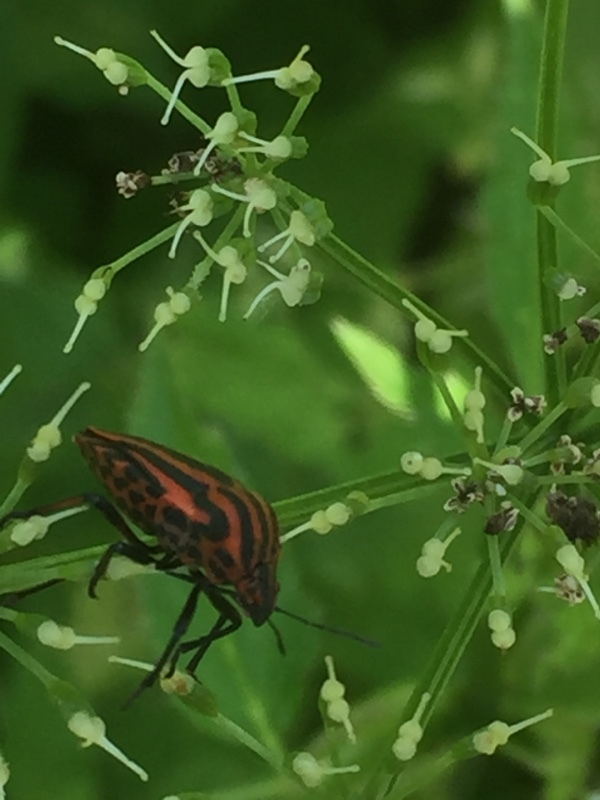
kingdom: Animalia
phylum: Arthropoda
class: Insecta
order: Hemiptera
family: Pentatomidae
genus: Graphosoma
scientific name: Graphosoma italicum
